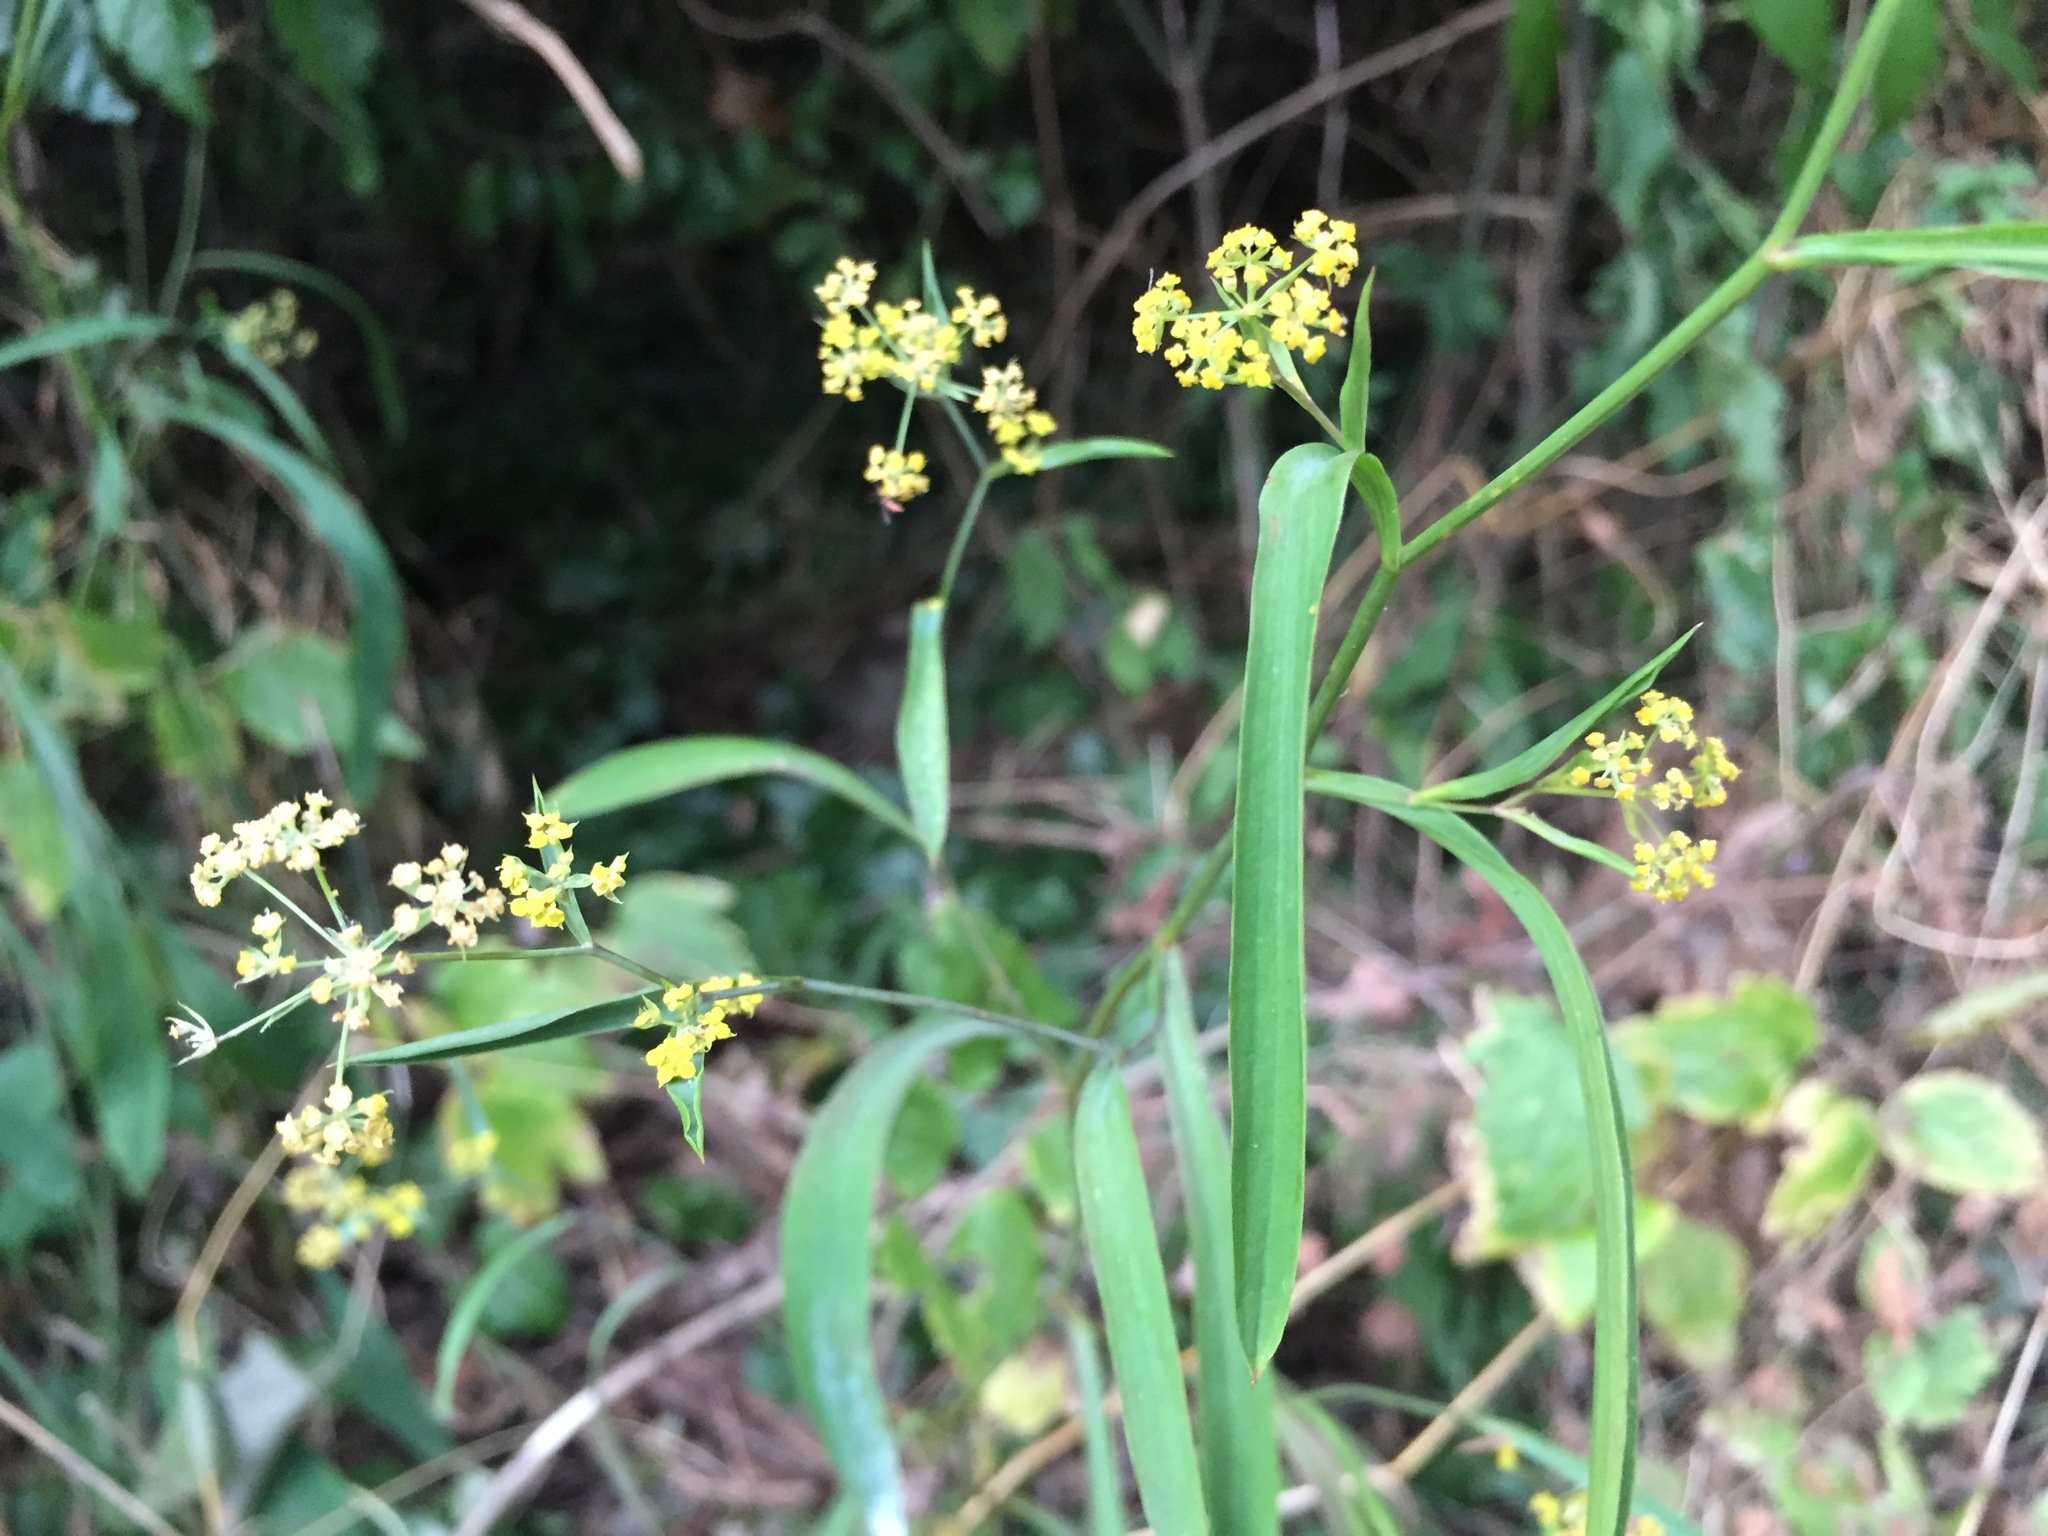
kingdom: Plantae
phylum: Tracheophyta
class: Magnoliopsida
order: Apiales
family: Apiaceae
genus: Bupleurum
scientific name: Bupleurum falcatum
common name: Sickle-leaved hare's-ear
